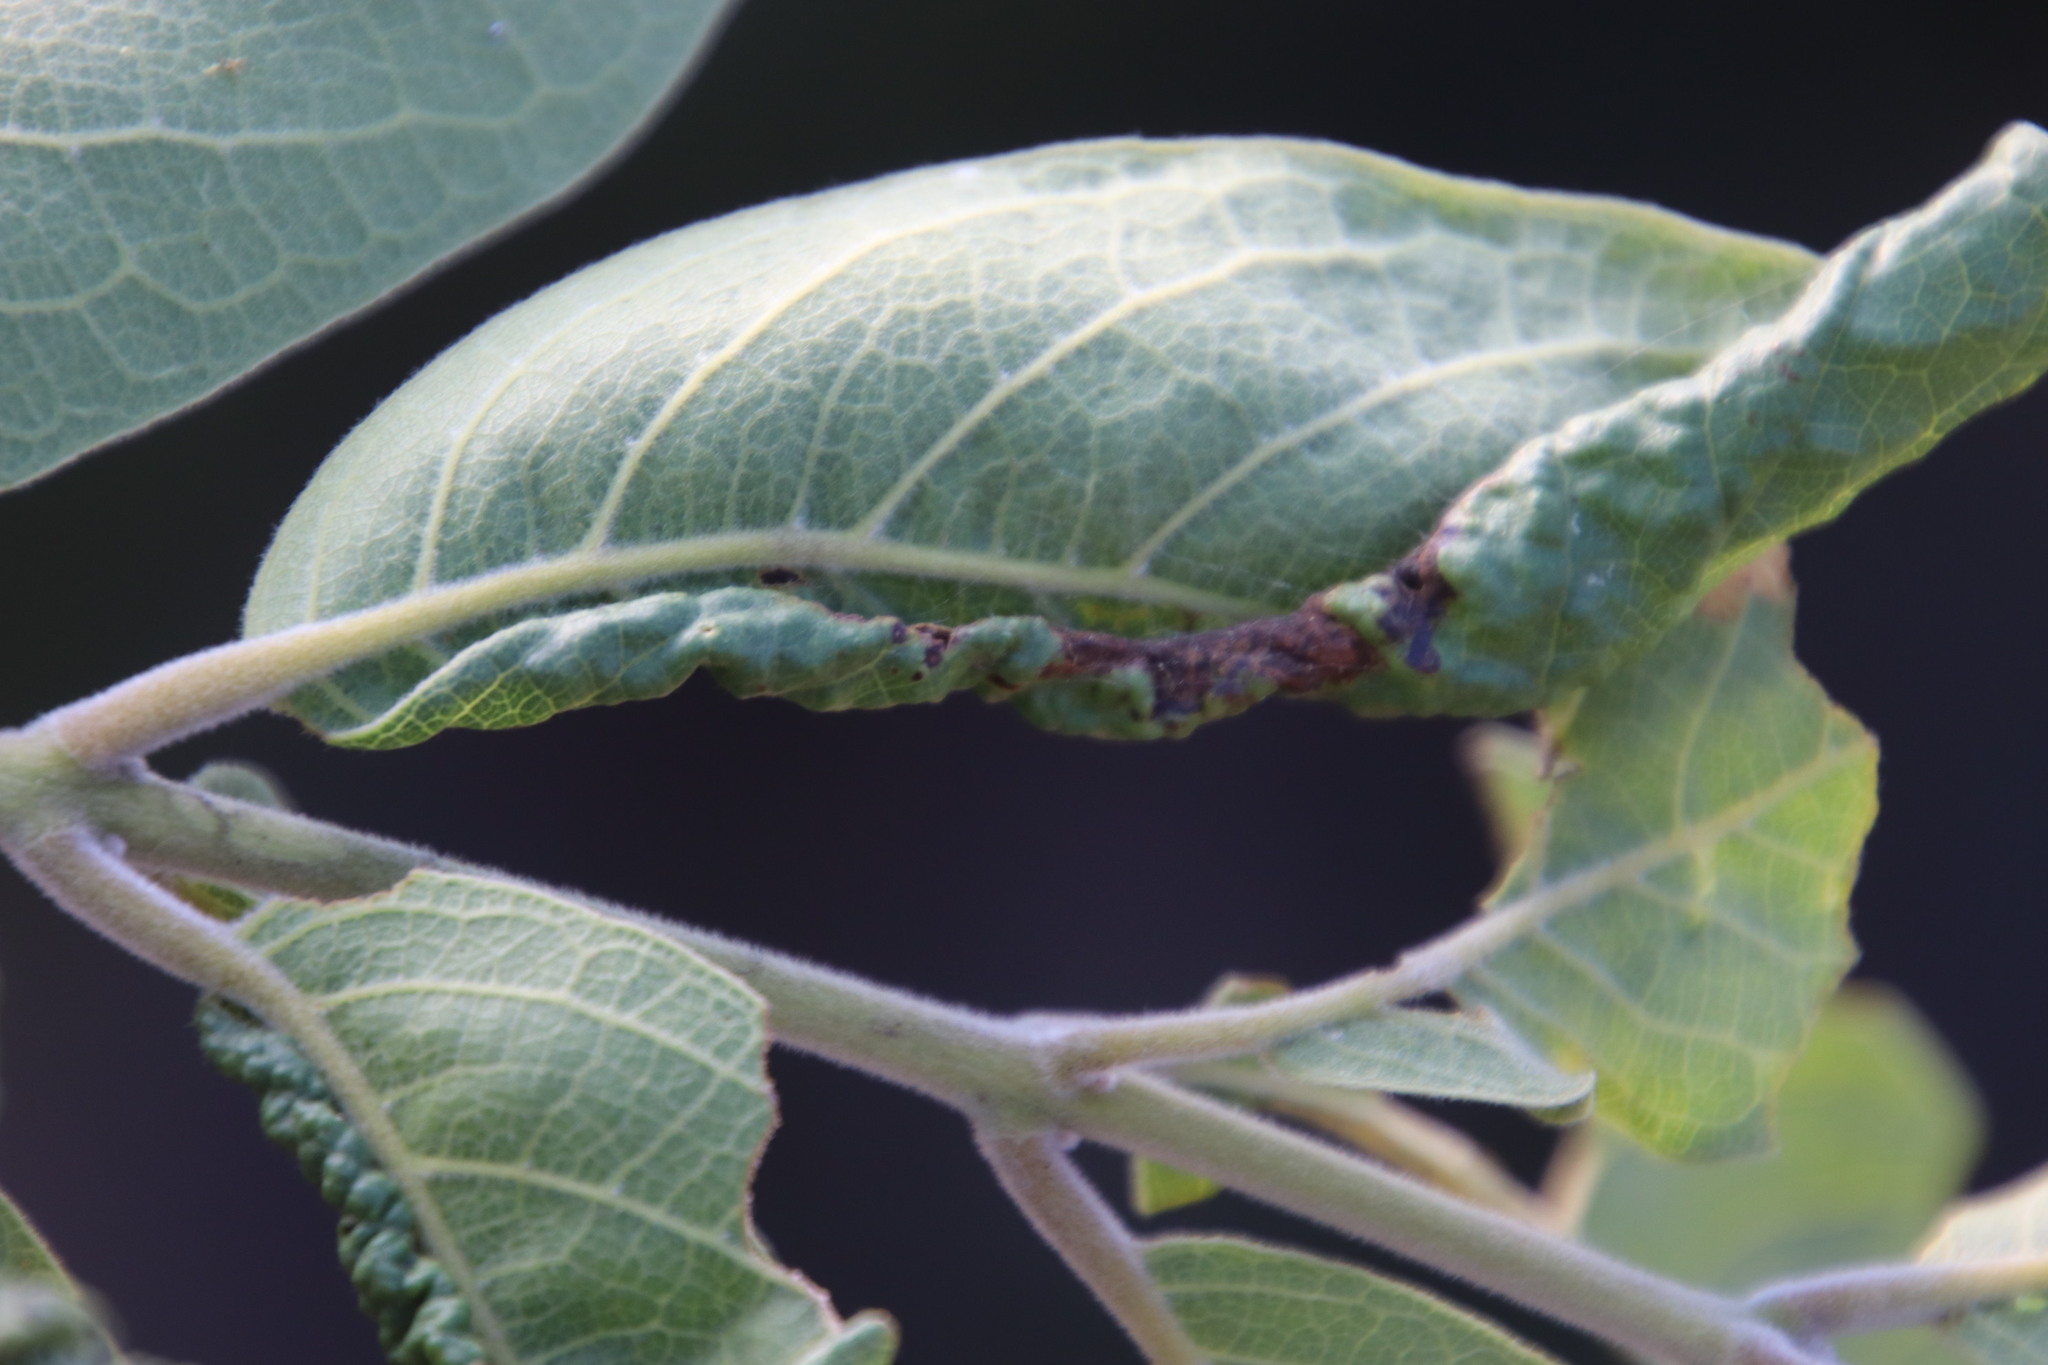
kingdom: Plantae
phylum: Tracheophyta
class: Magnoliopsida
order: Myrtales
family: Combretaceae
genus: Combretum
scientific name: Combretum zeyheri
